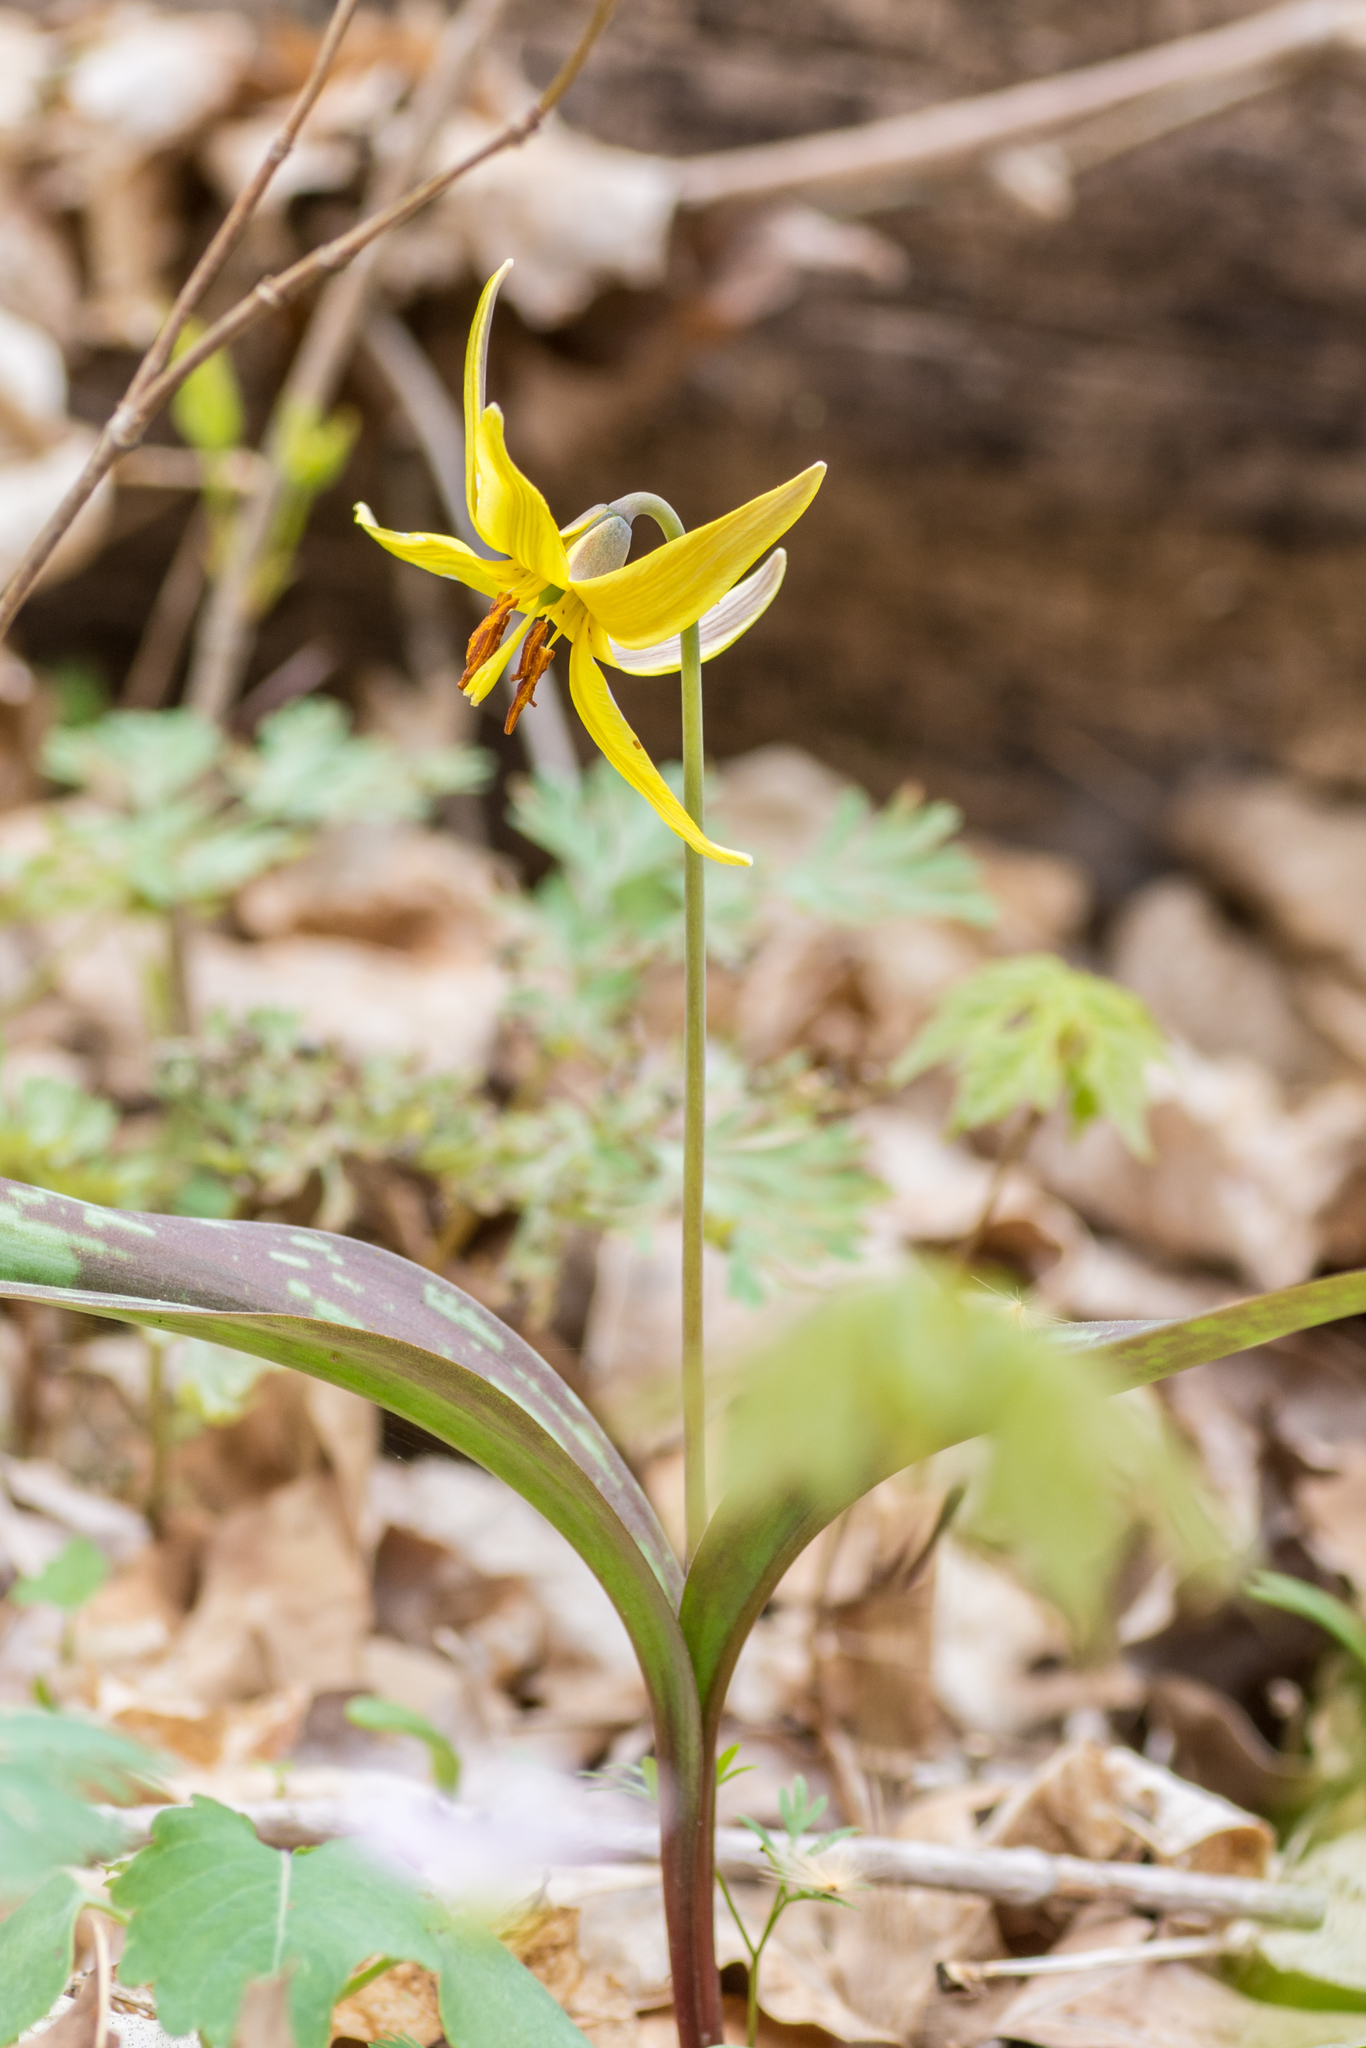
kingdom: Plantae
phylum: Tracheophyta
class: Liliopsida
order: Liliales
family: Liliaceae
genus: Erythronium
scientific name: Erythronium americanum
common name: Yellow adder's-tongue
